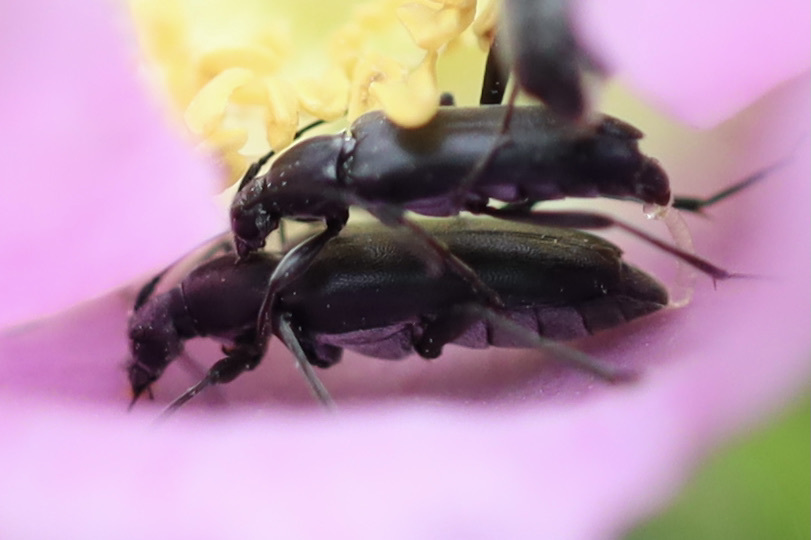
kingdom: Animalia
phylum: Arthropoda
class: Insecta
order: Coleoptera
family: Cerambycidae
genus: Grammoptera
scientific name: Grammoptera subargentata
